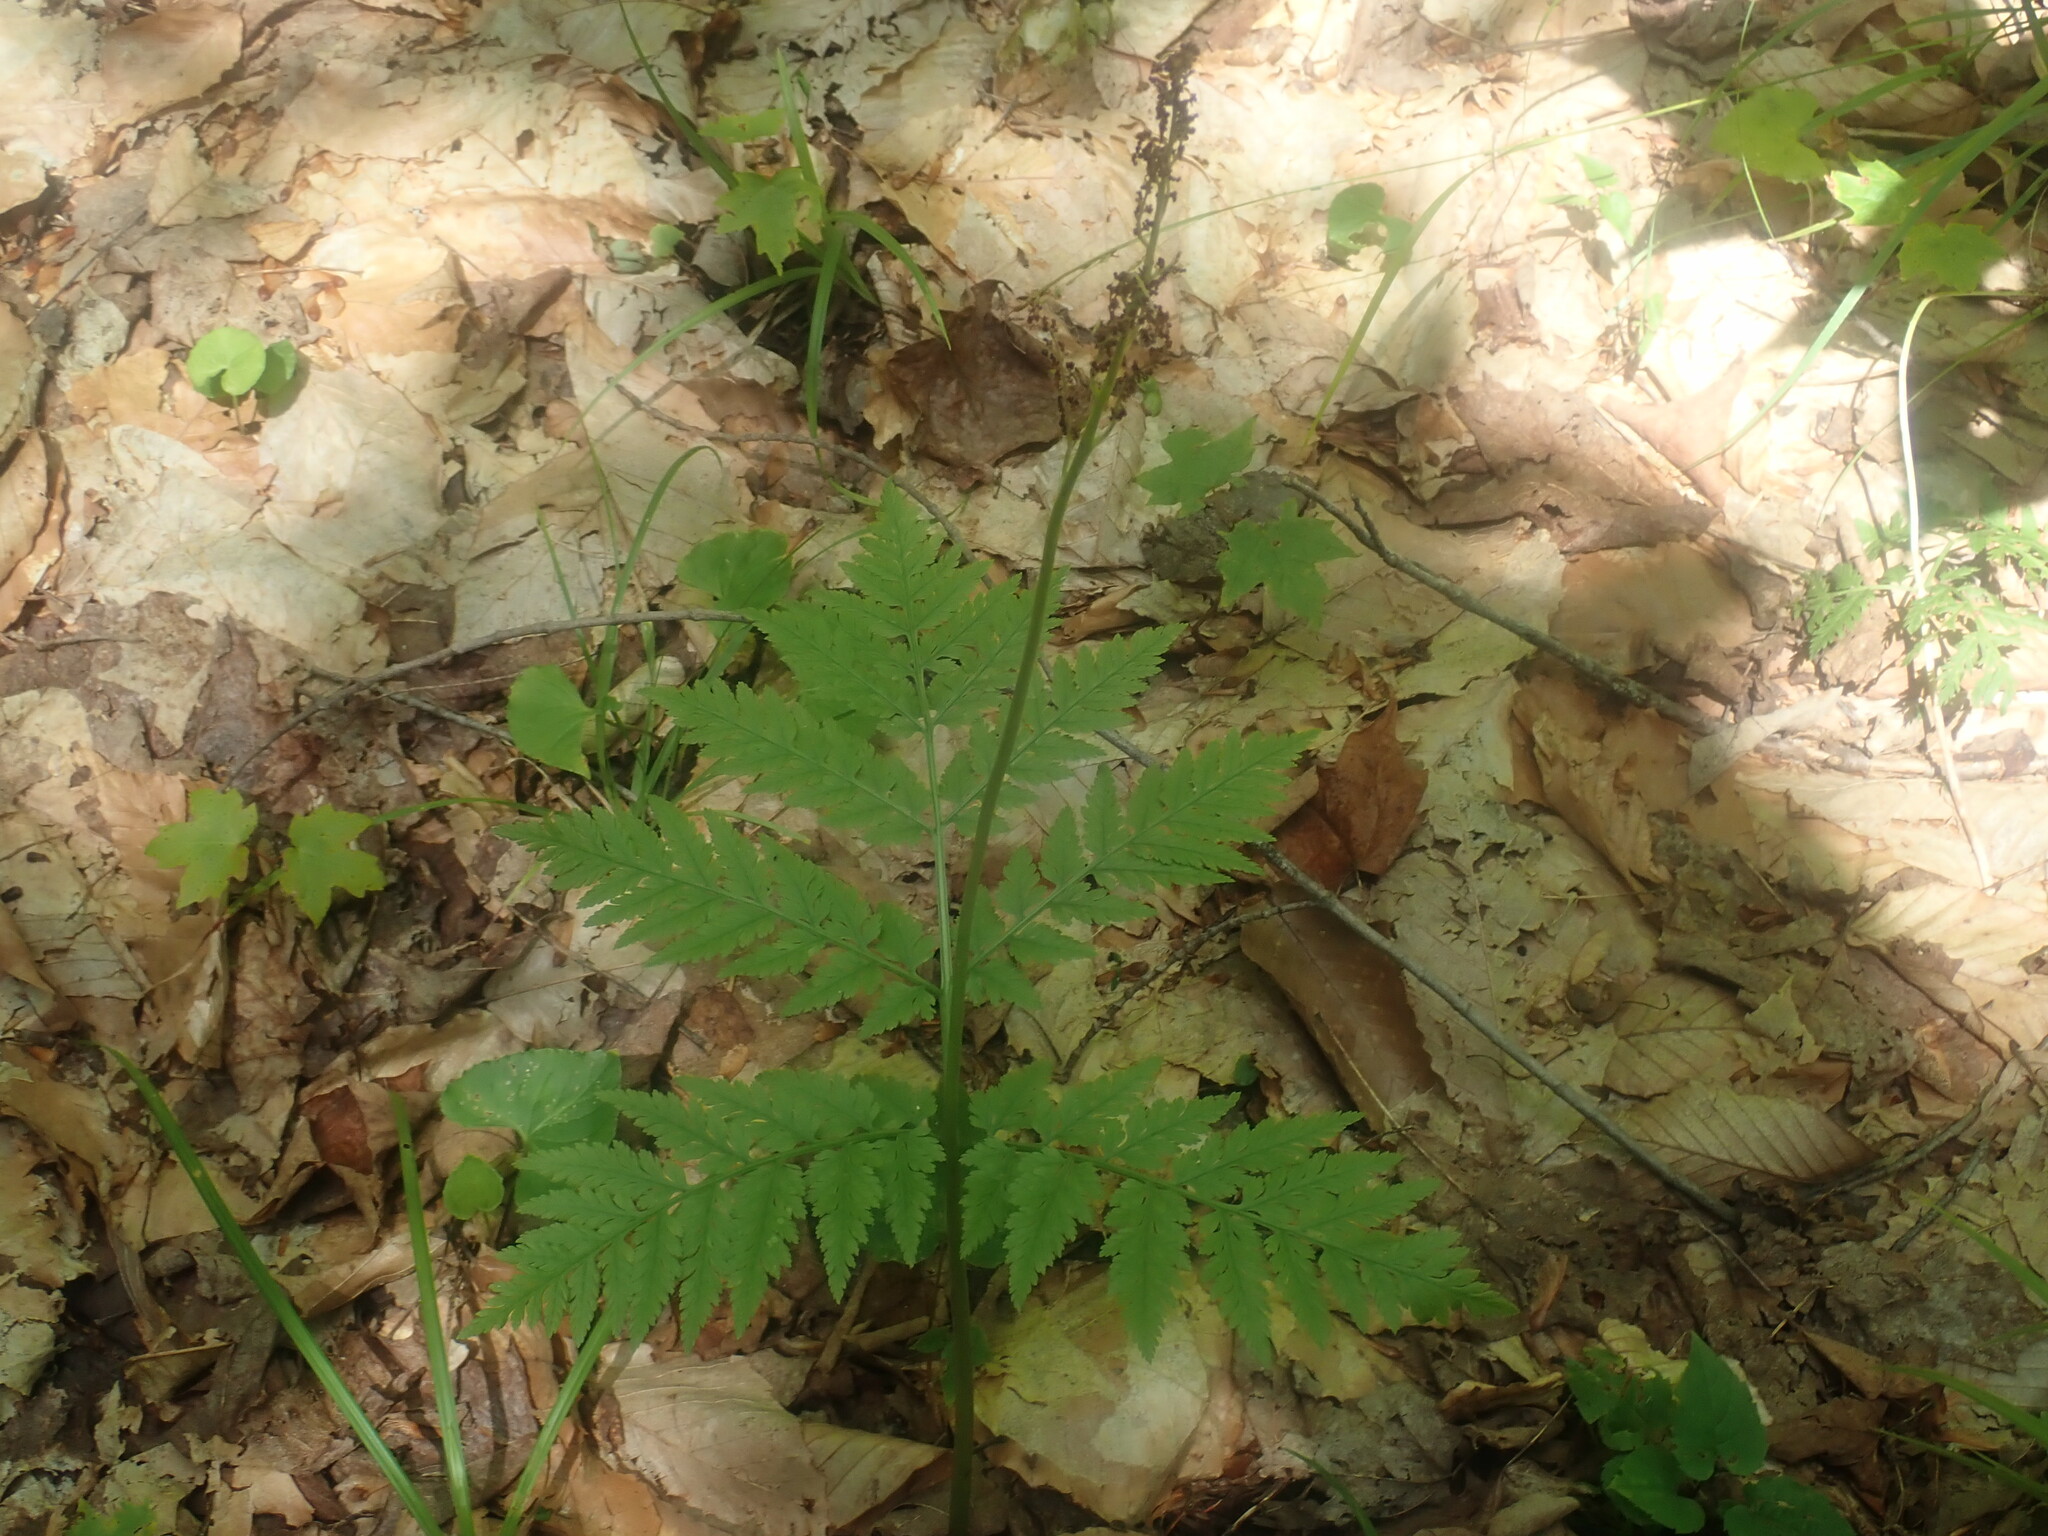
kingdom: Plantae
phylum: Tracheophyta
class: Polypodiopsida
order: Ophioglossales
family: Ophioglossaceae
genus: Botrypus
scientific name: Botrypus virginianus
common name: Common grapefern
